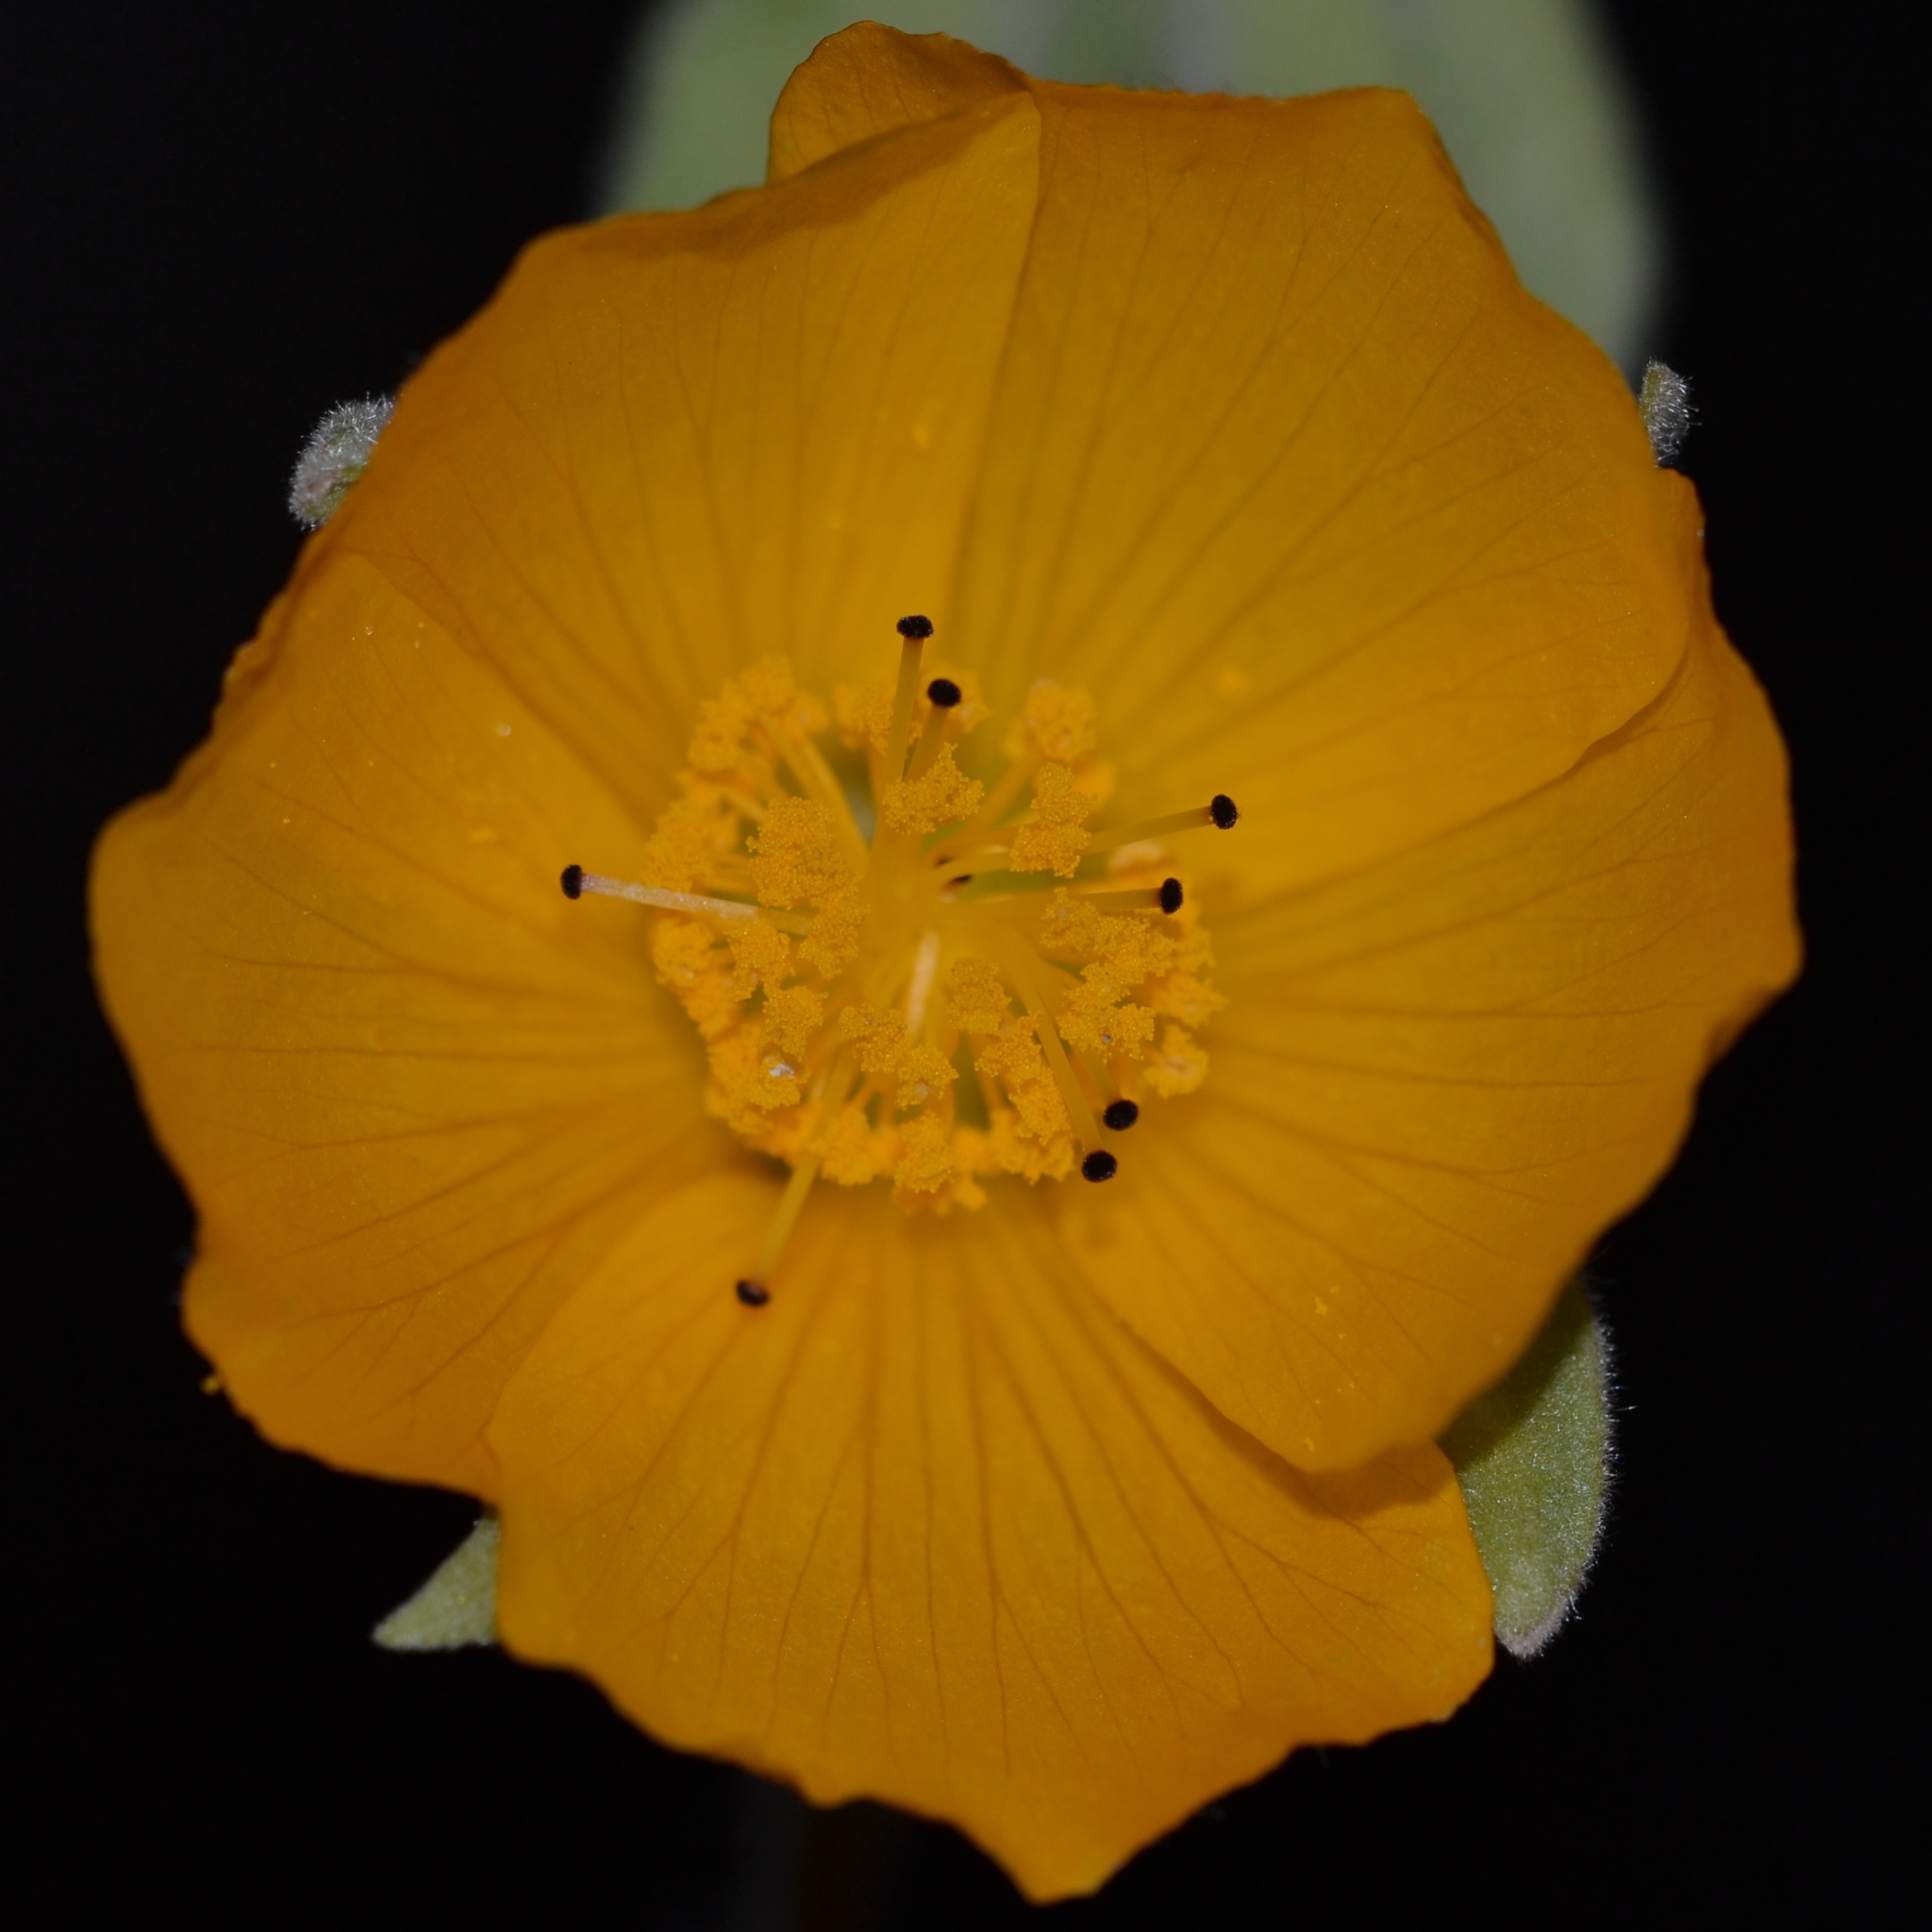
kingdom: Plantae
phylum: Tracheophyta
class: Magnoliopsida
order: Malvales
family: Malvaceae
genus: Abutilon
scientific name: Abutilon grandifolium
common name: Hairy abutilon
